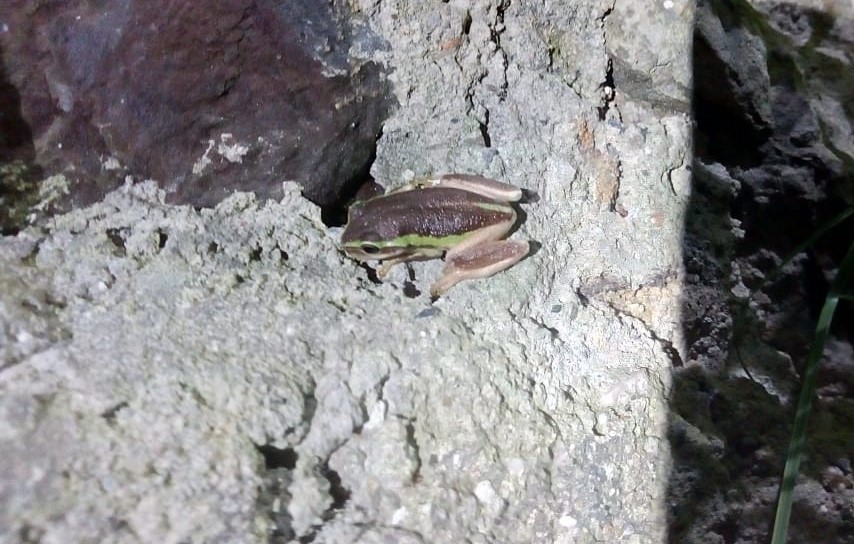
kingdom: Animalia
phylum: Chordata
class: Amphibia
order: Anura
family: Hylidae
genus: Dendropsophus
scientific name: Dendropsophus molitor
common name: Green dotted treefrog
